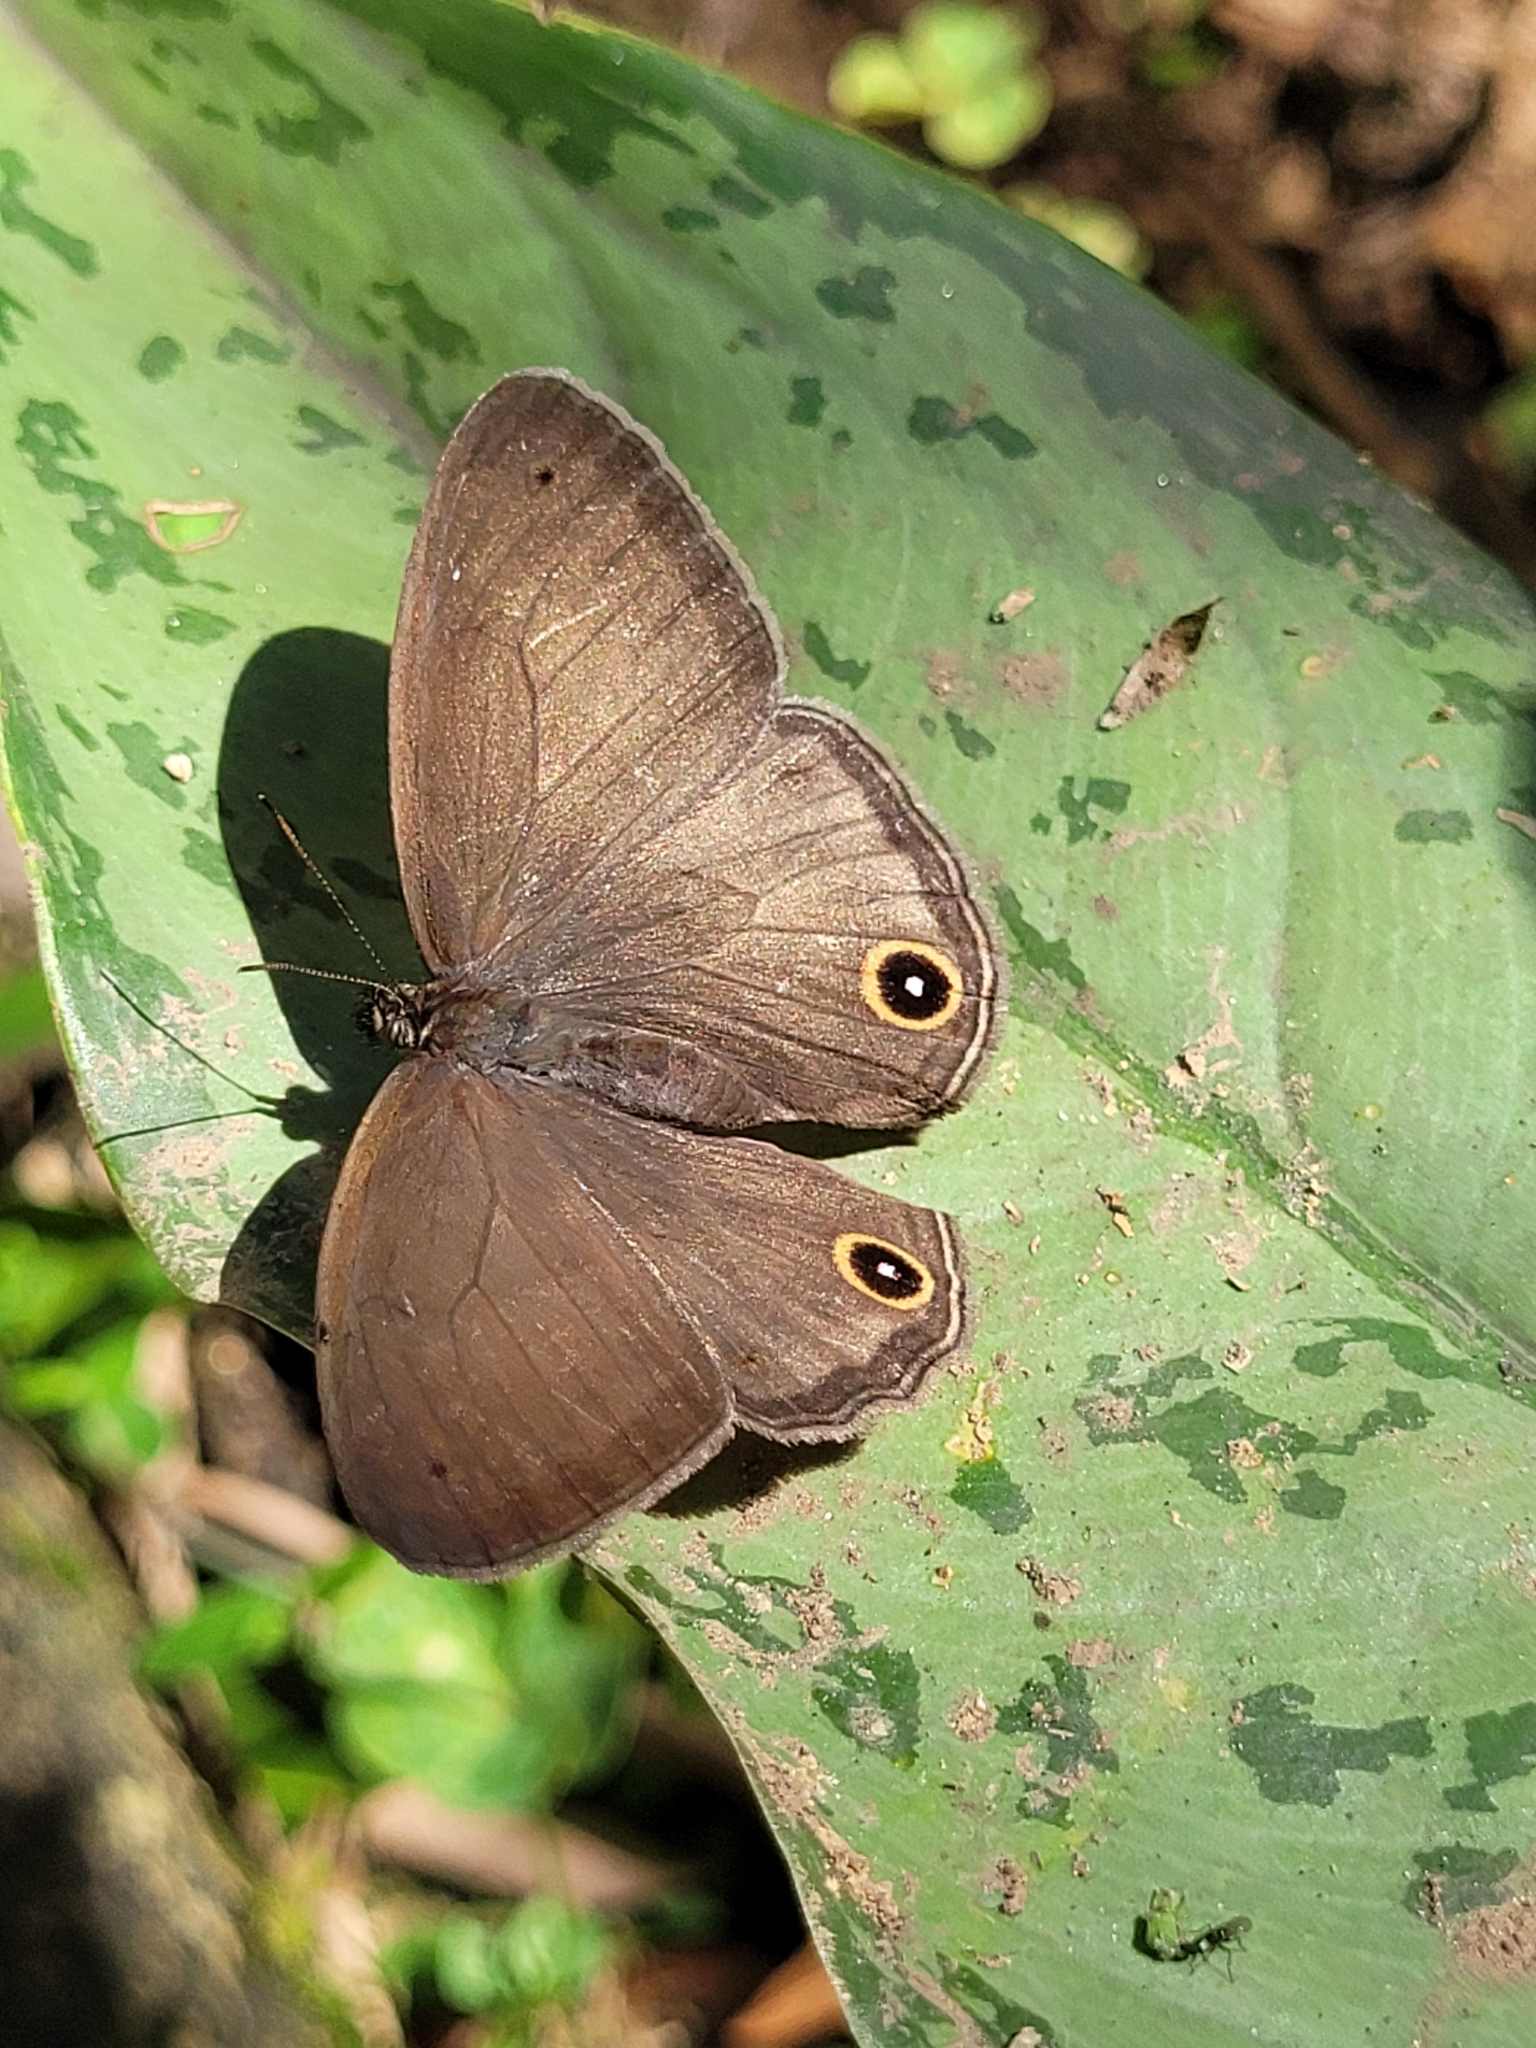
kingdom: Animalia
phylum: Arthropoda
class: Insecta
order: Lepidoptera
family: Nymphalidae
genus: Euptychoides
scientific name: Euptychoides saturnus
